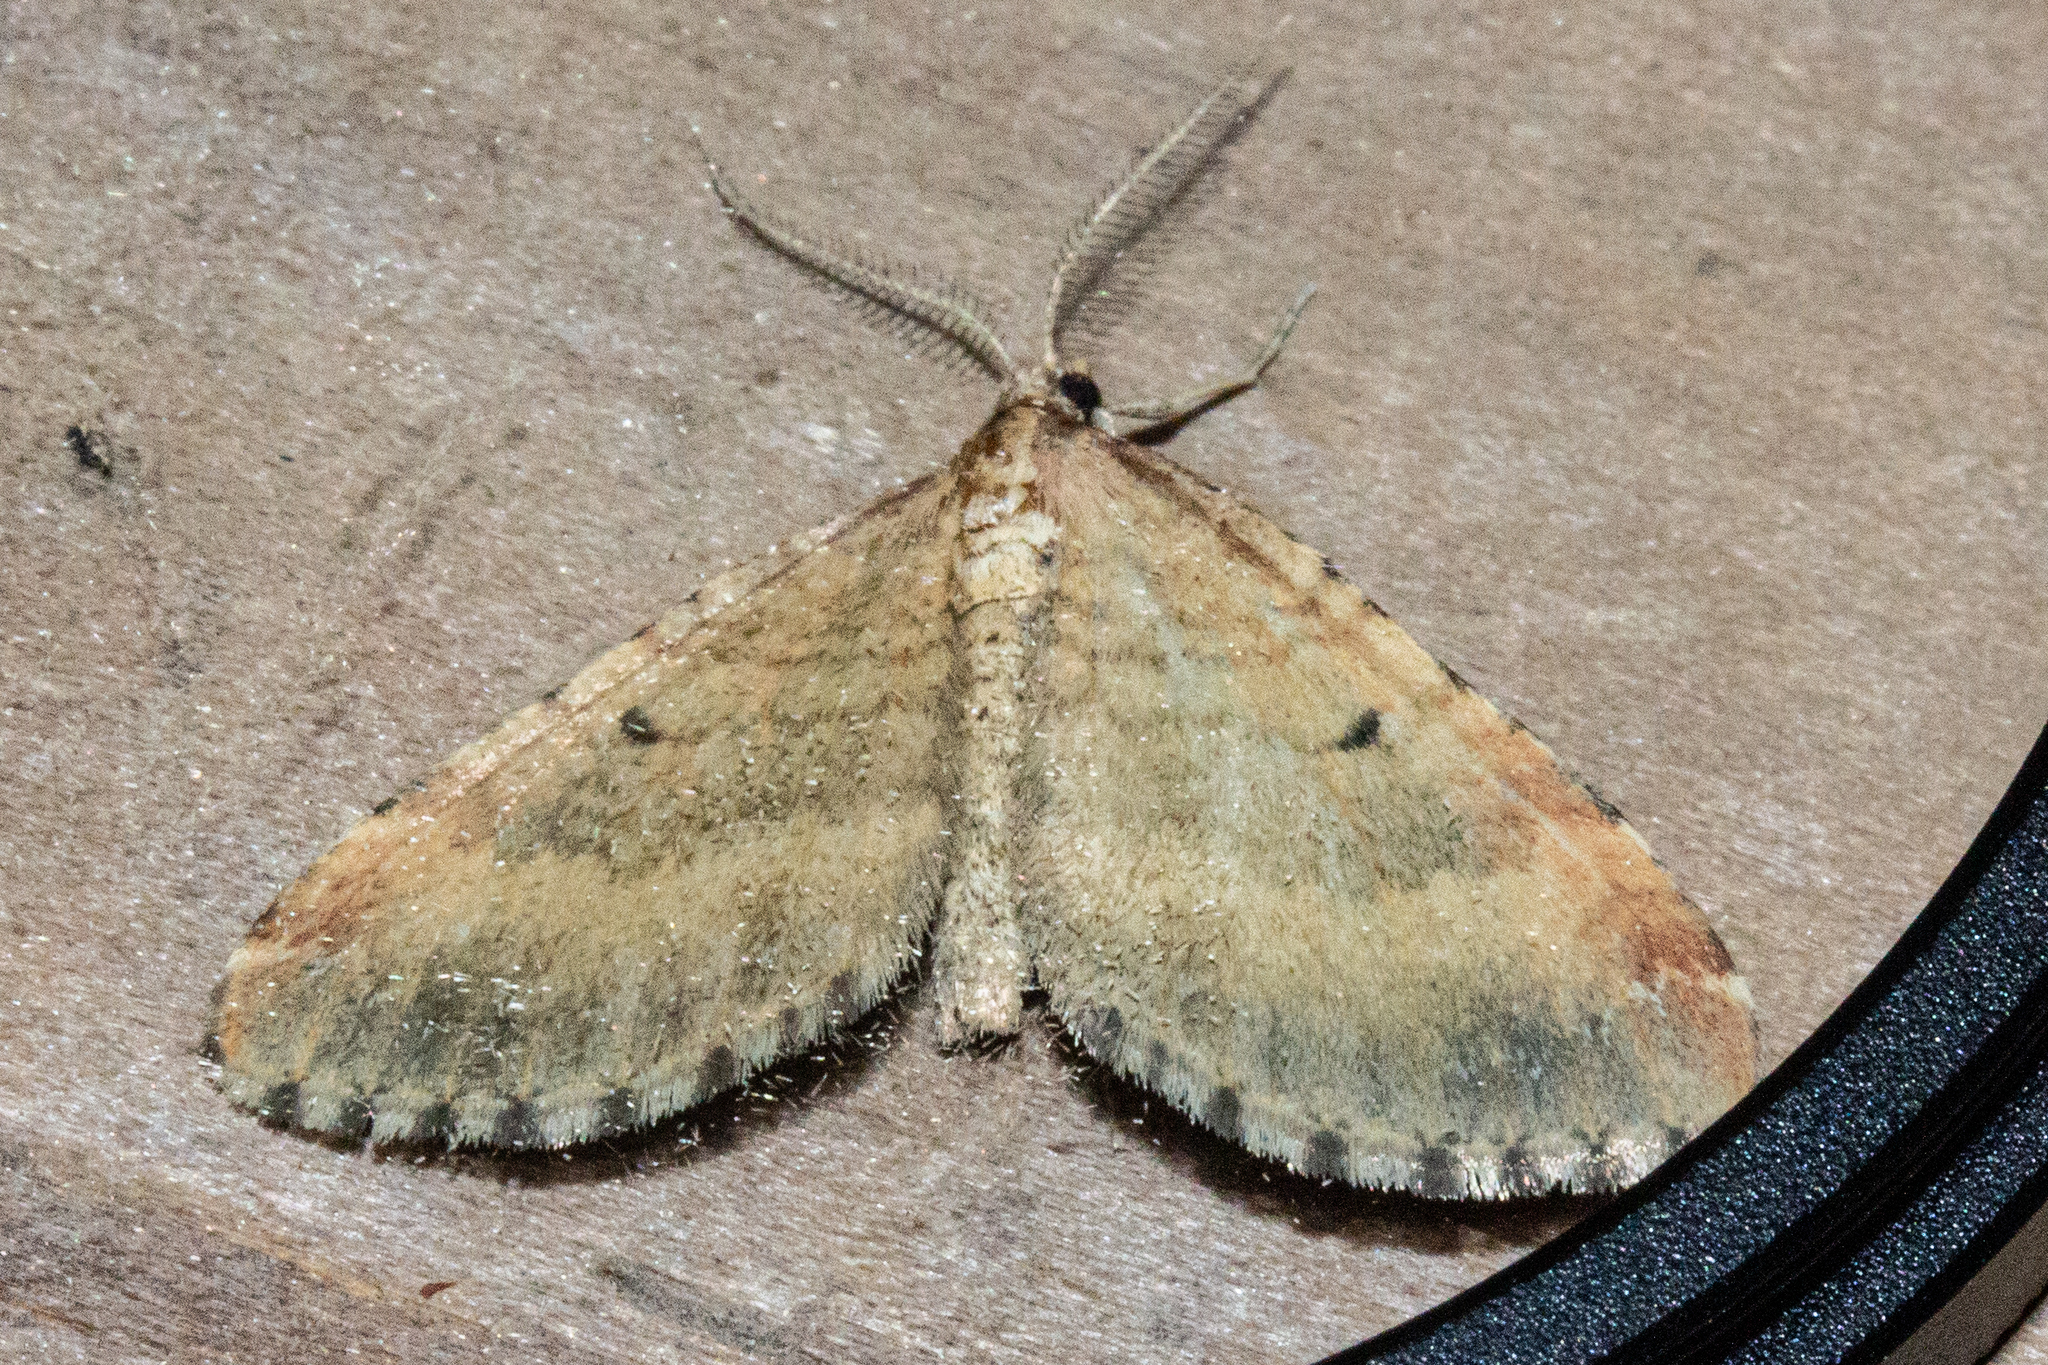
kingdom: Animalia
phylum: Arthropoda
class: Insecta
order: Lepidoptera
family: Geometridae
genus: Asaphodes
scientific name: Asaphodes aegrota
